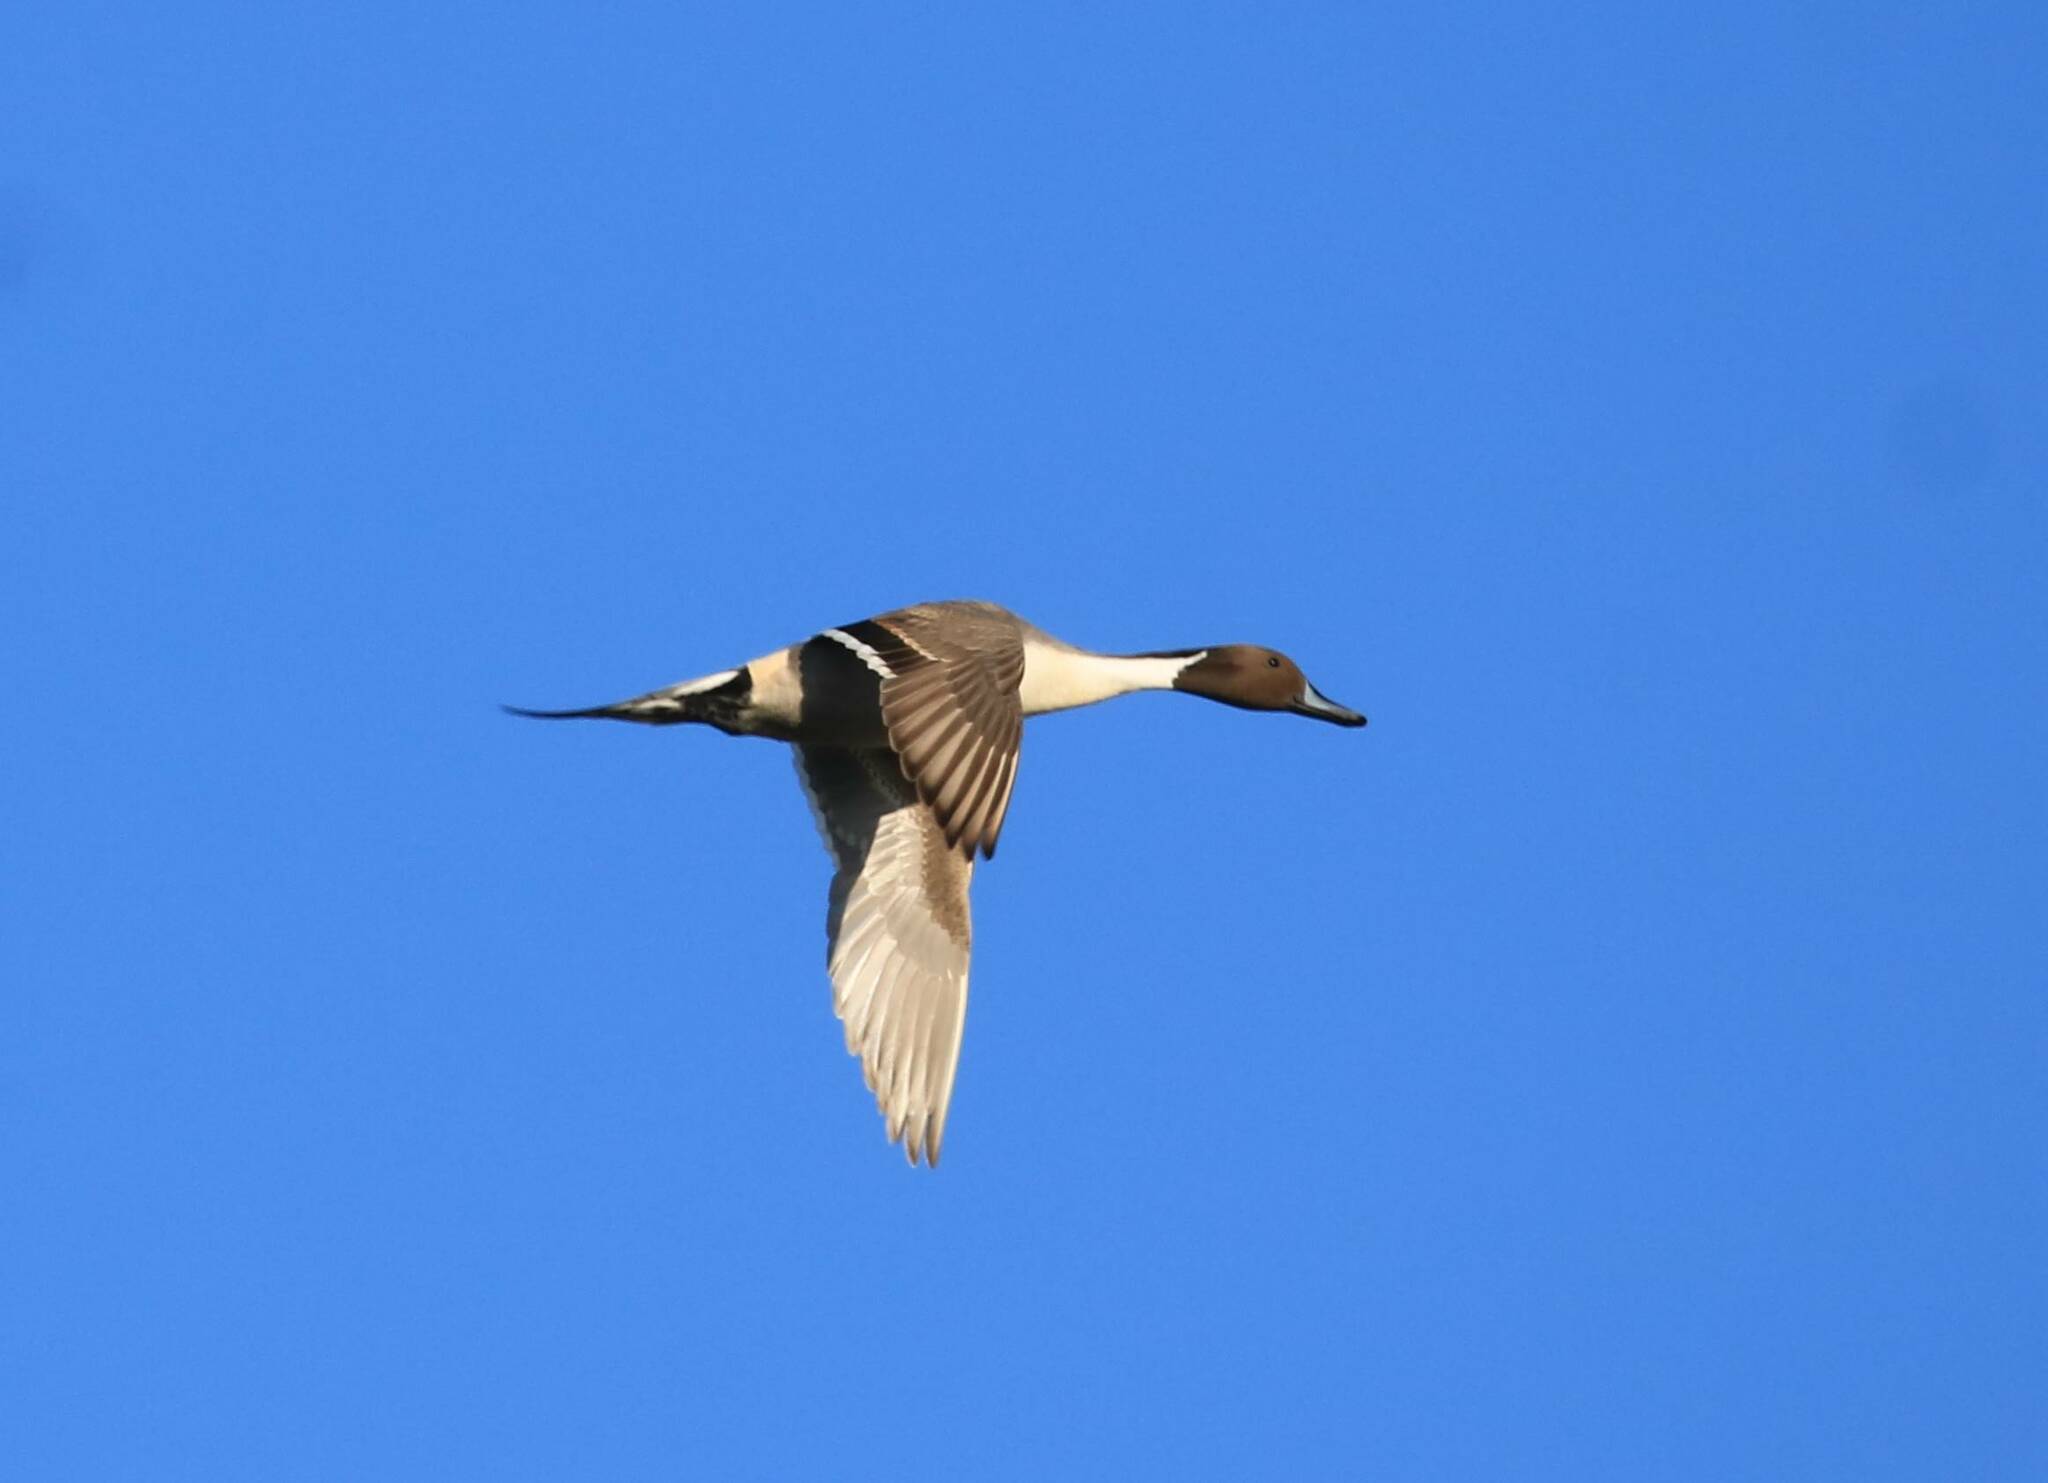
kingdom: Animalia
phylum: Chordata
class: Aves
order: Anseriformes
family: Anatidae
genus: Anas
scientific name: Anas acuta
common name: Northern pintail
